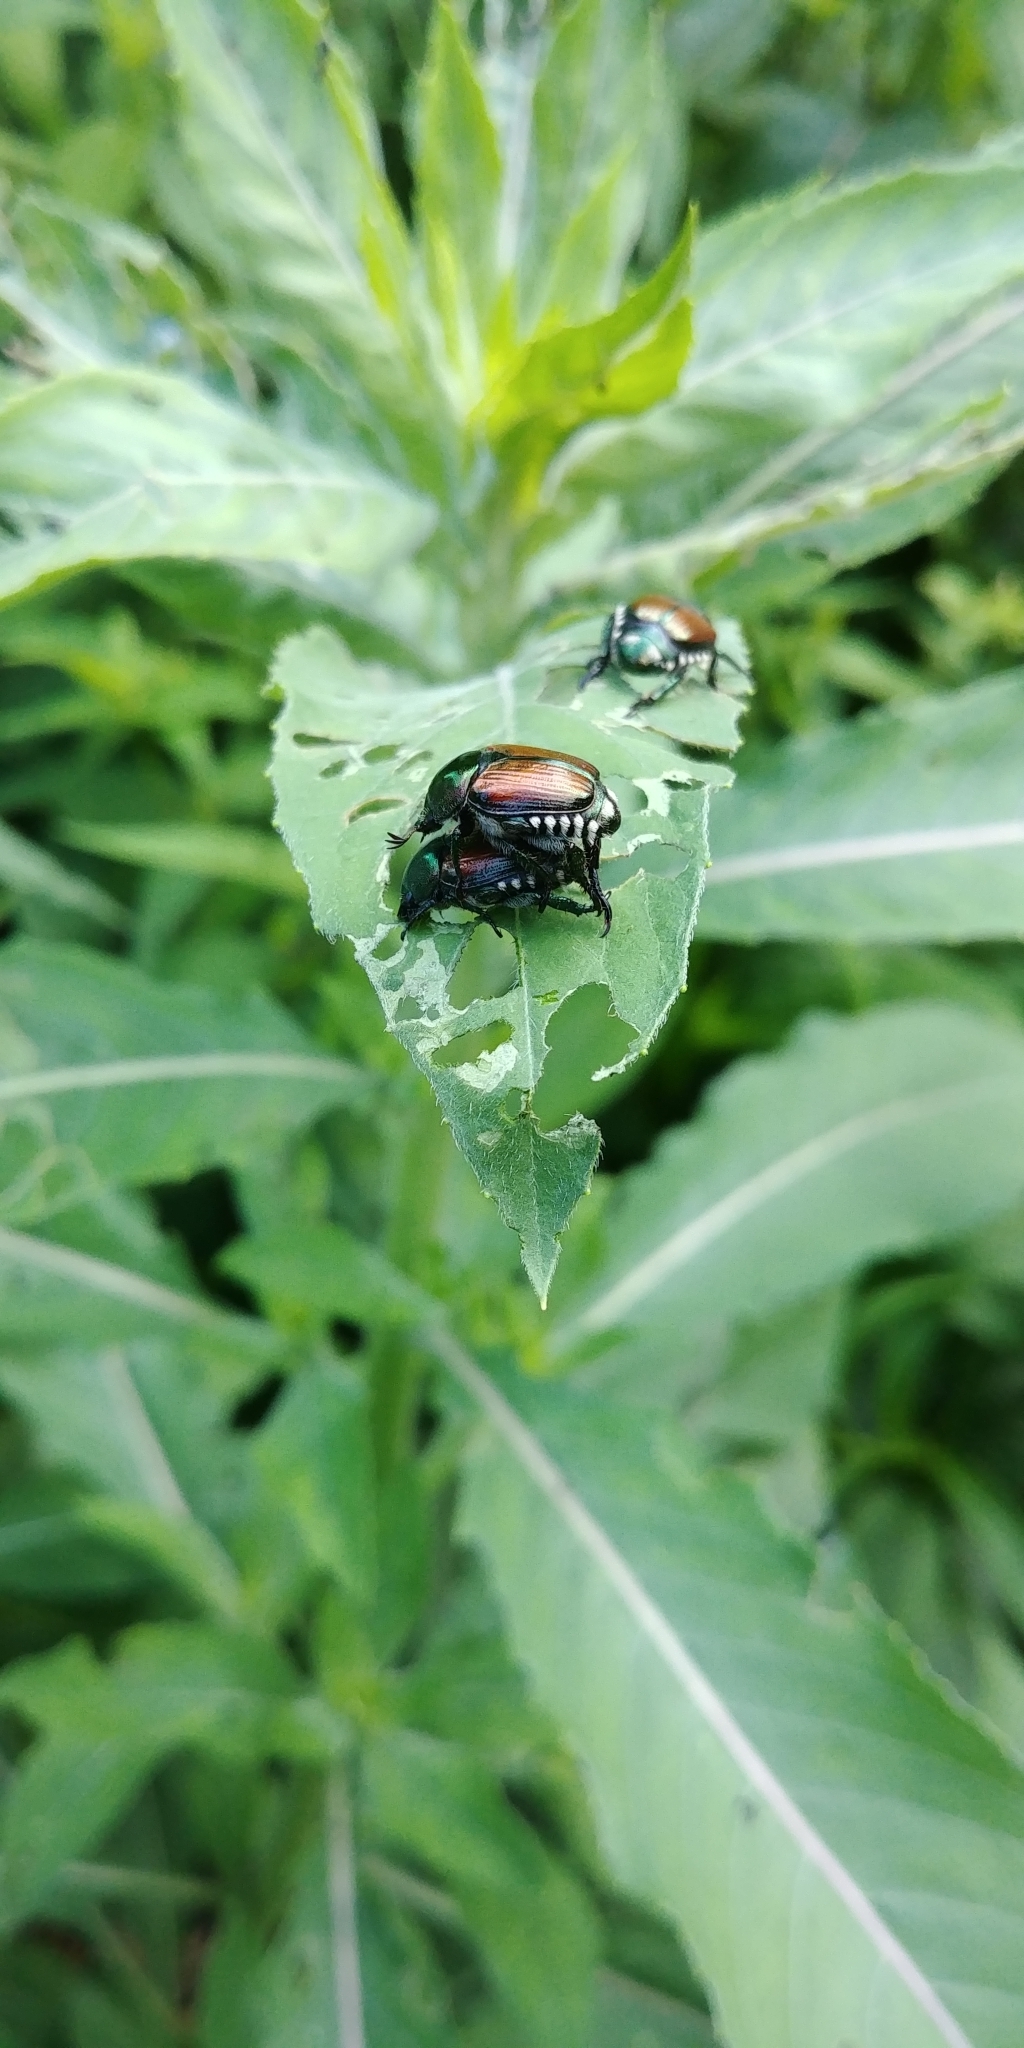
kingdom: Animalia
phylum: Arthropoda
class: Insecta
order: Coleoptera
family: Scarabaeidae
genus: Popillia
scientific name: Popillia japonica
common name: Japanese beetle
